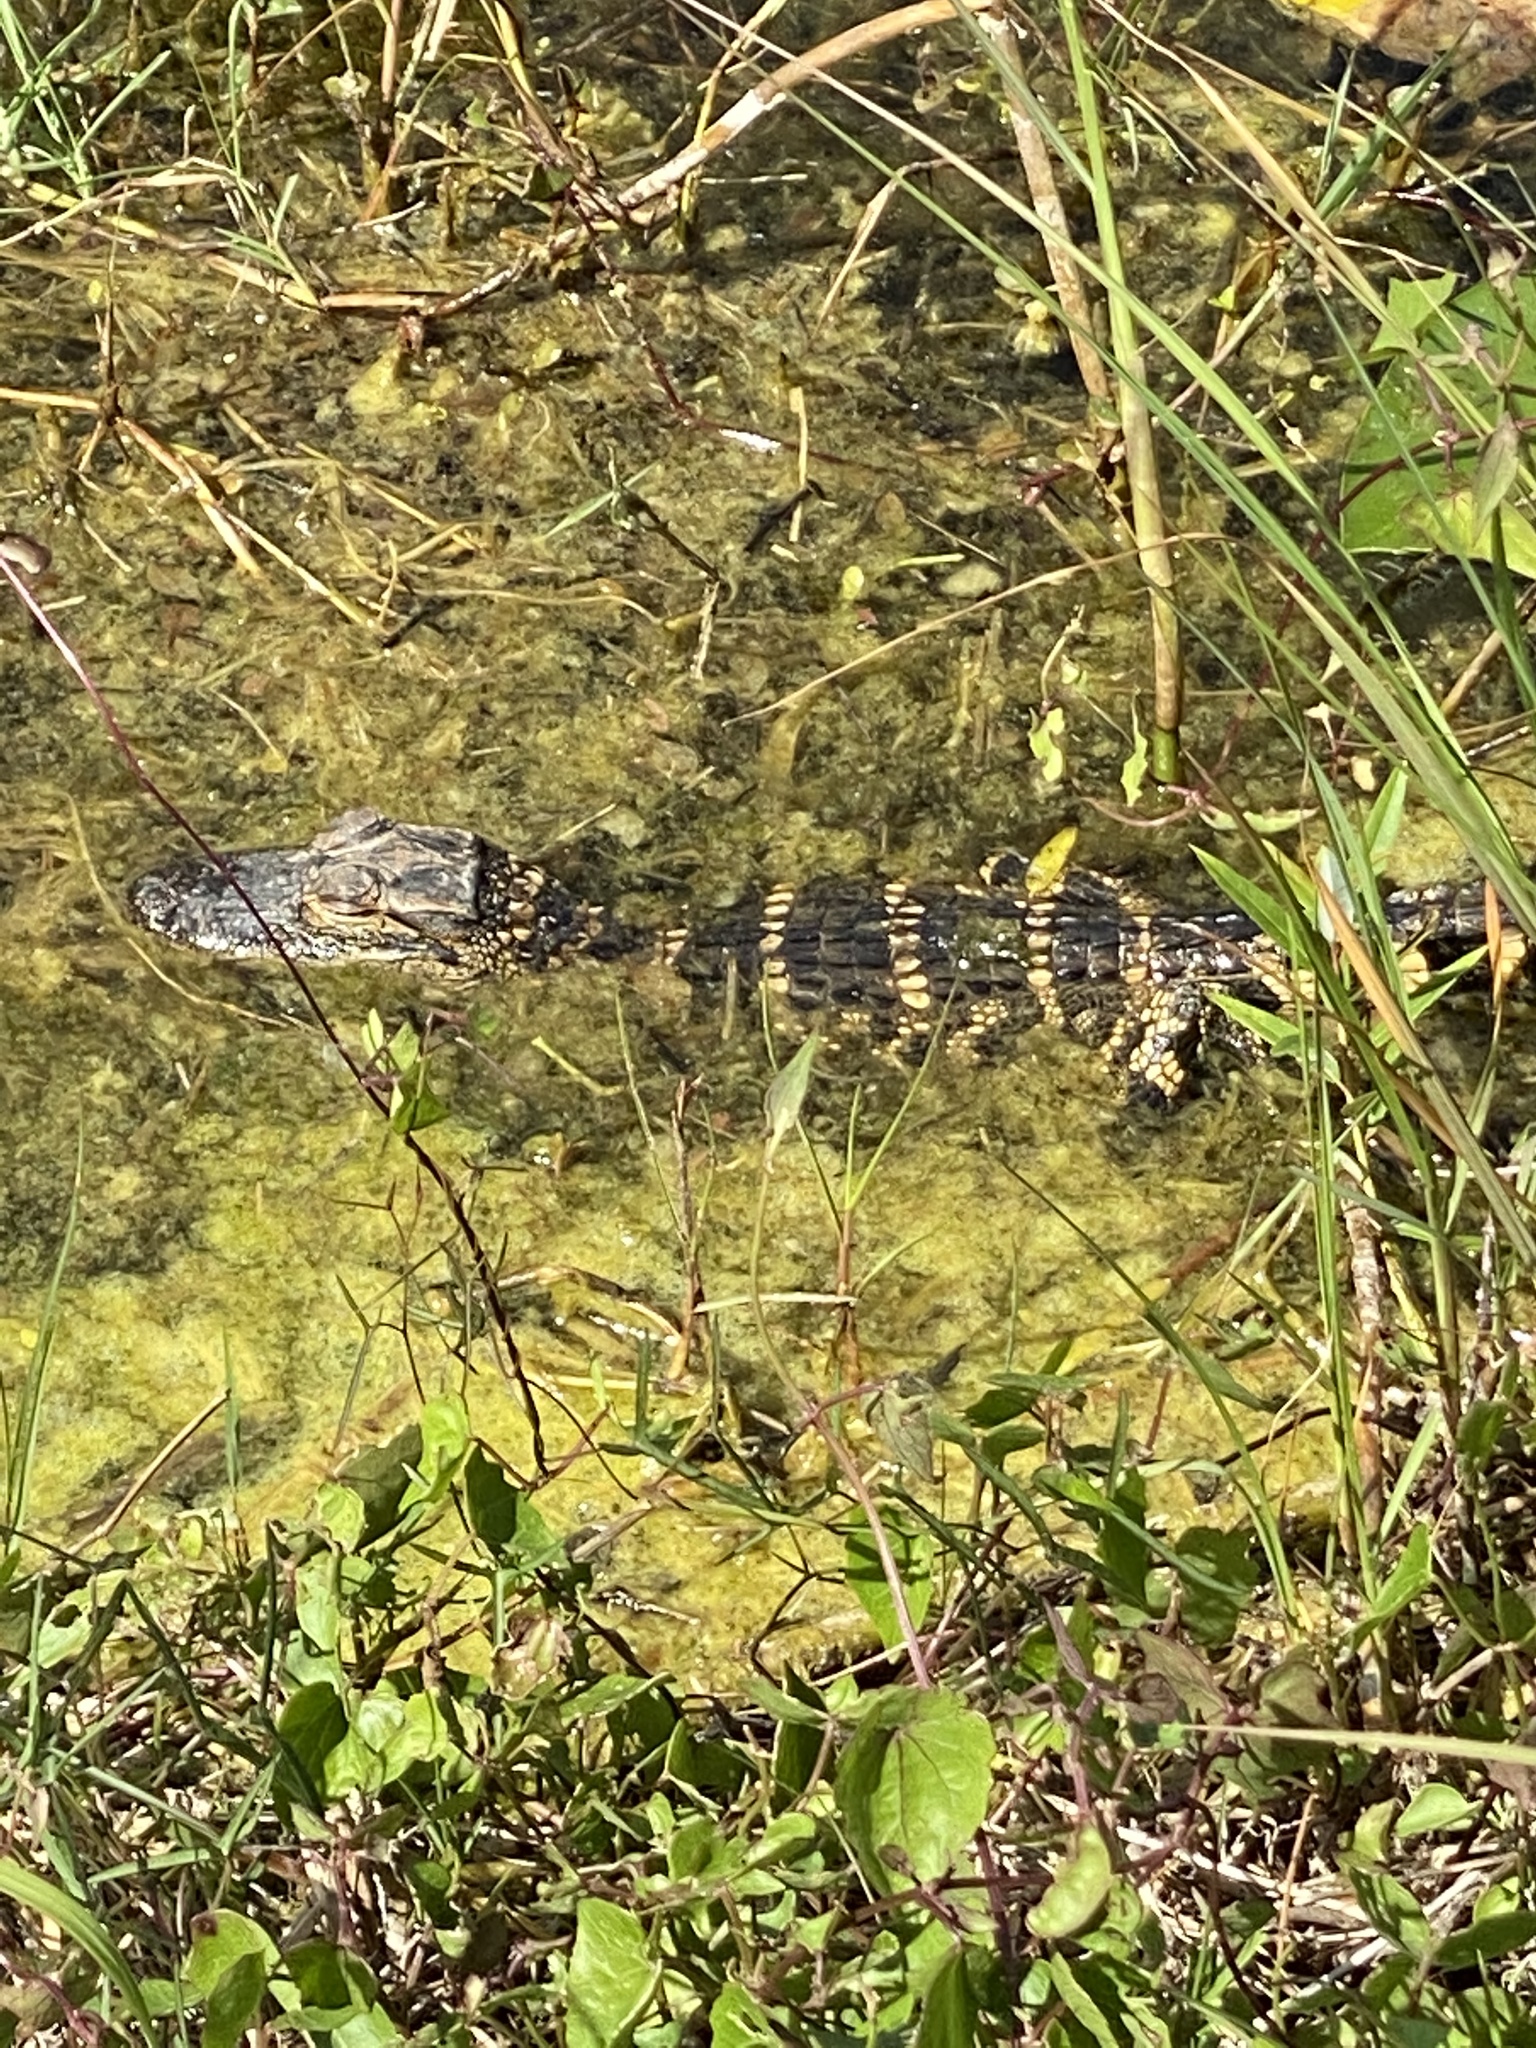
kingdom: Animalia
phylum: Chordata
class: Crocodylia
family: Alligatoridae
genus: Alligator
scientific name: Alligator mississippiensis
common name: American alligator
